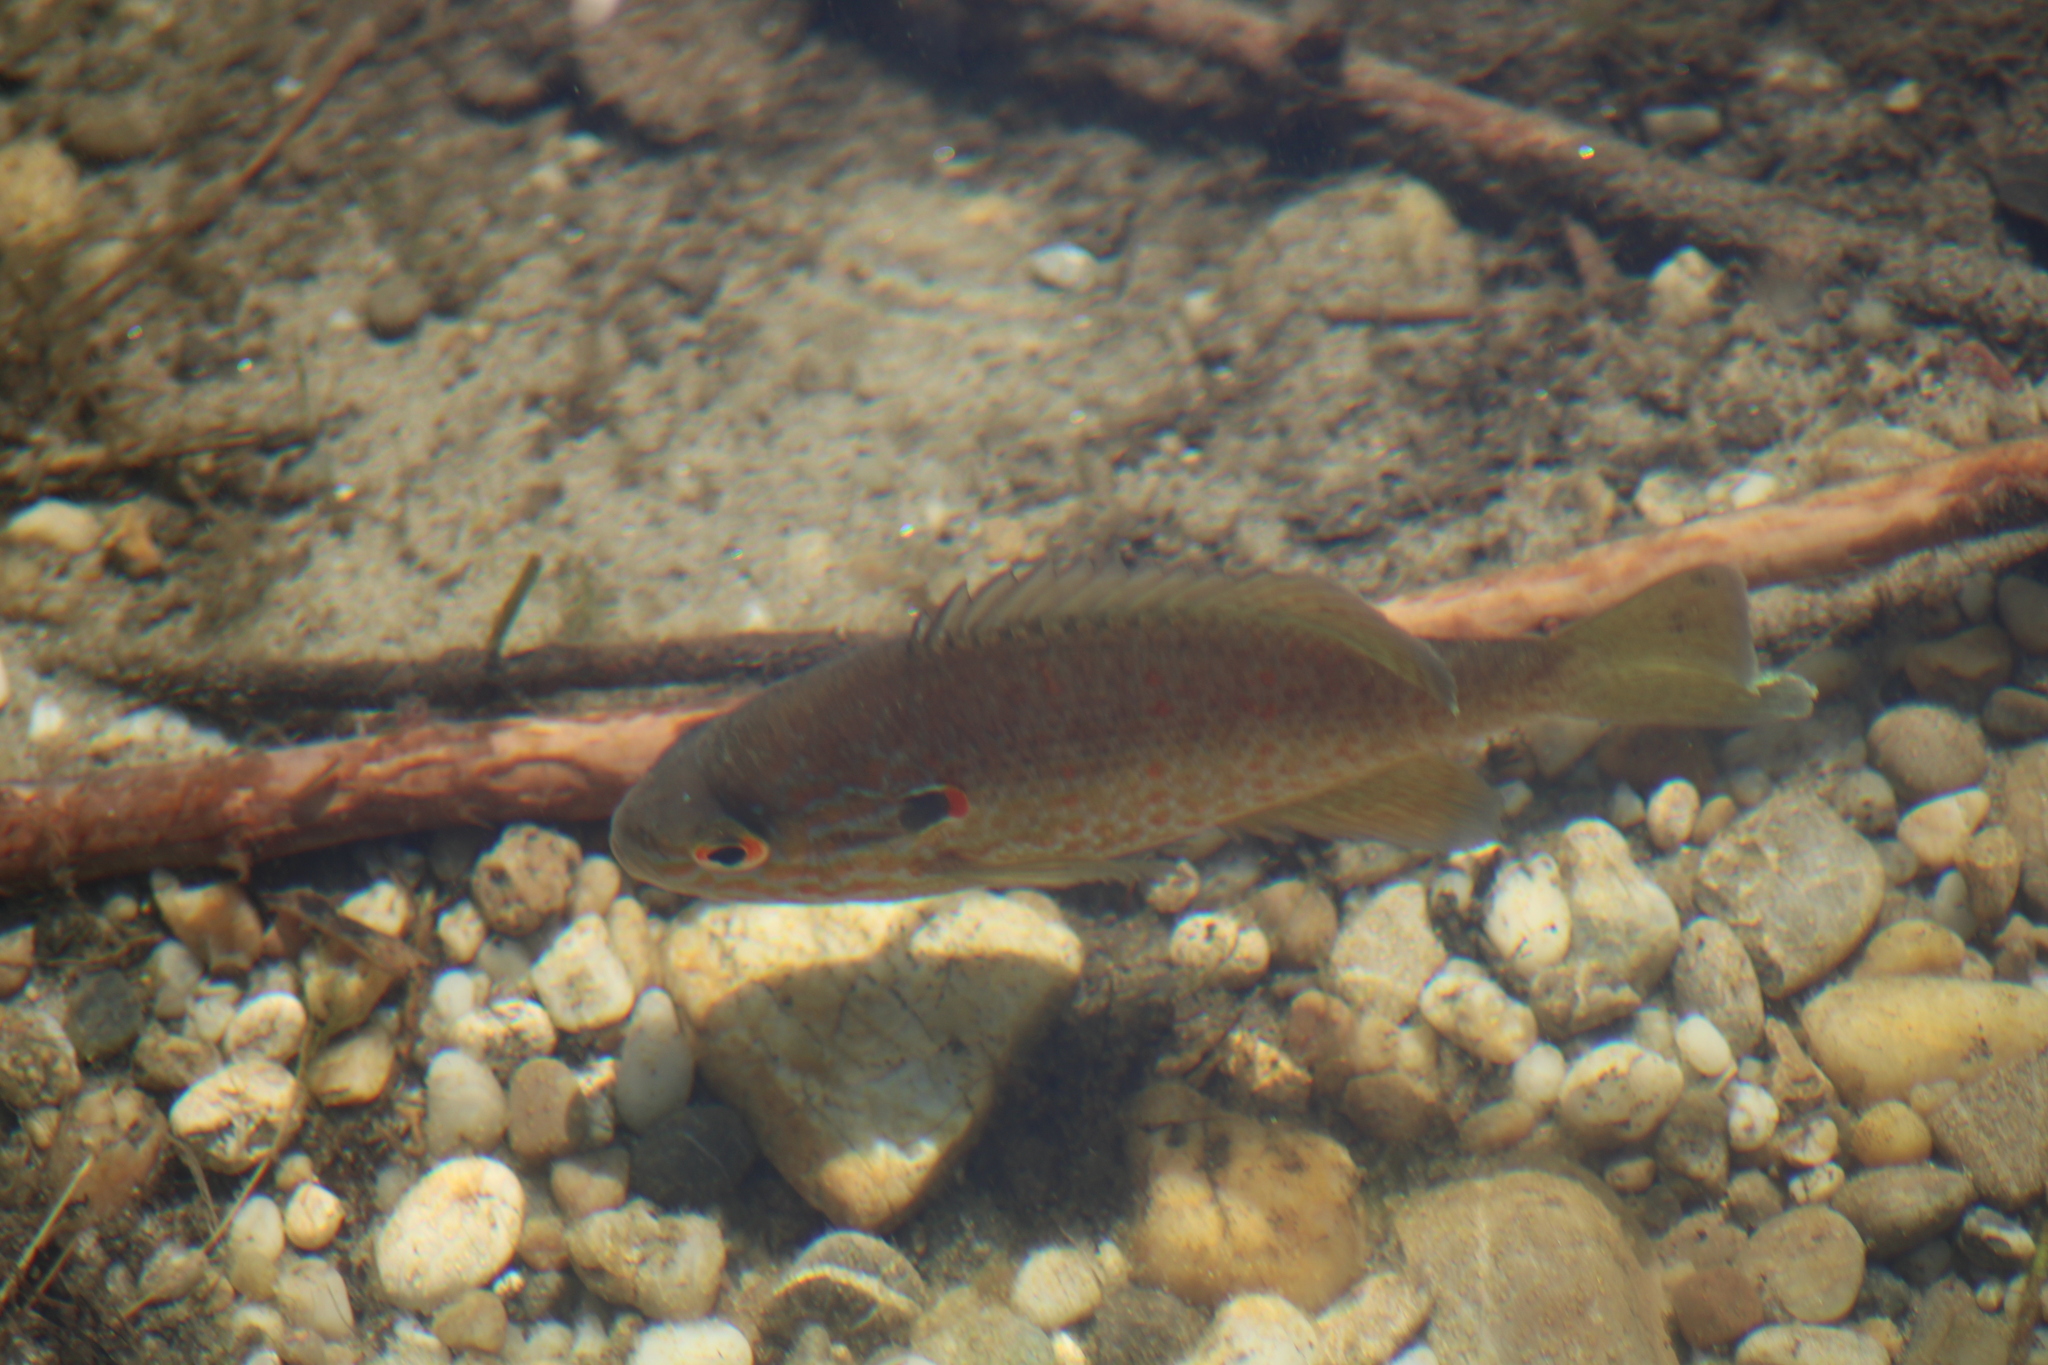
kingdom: Animalia
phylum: Chordata
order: Perciformes
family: Centrarchidae
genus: Lepomis
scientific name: Lepomis gibbosus
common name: Pumpkinseed
